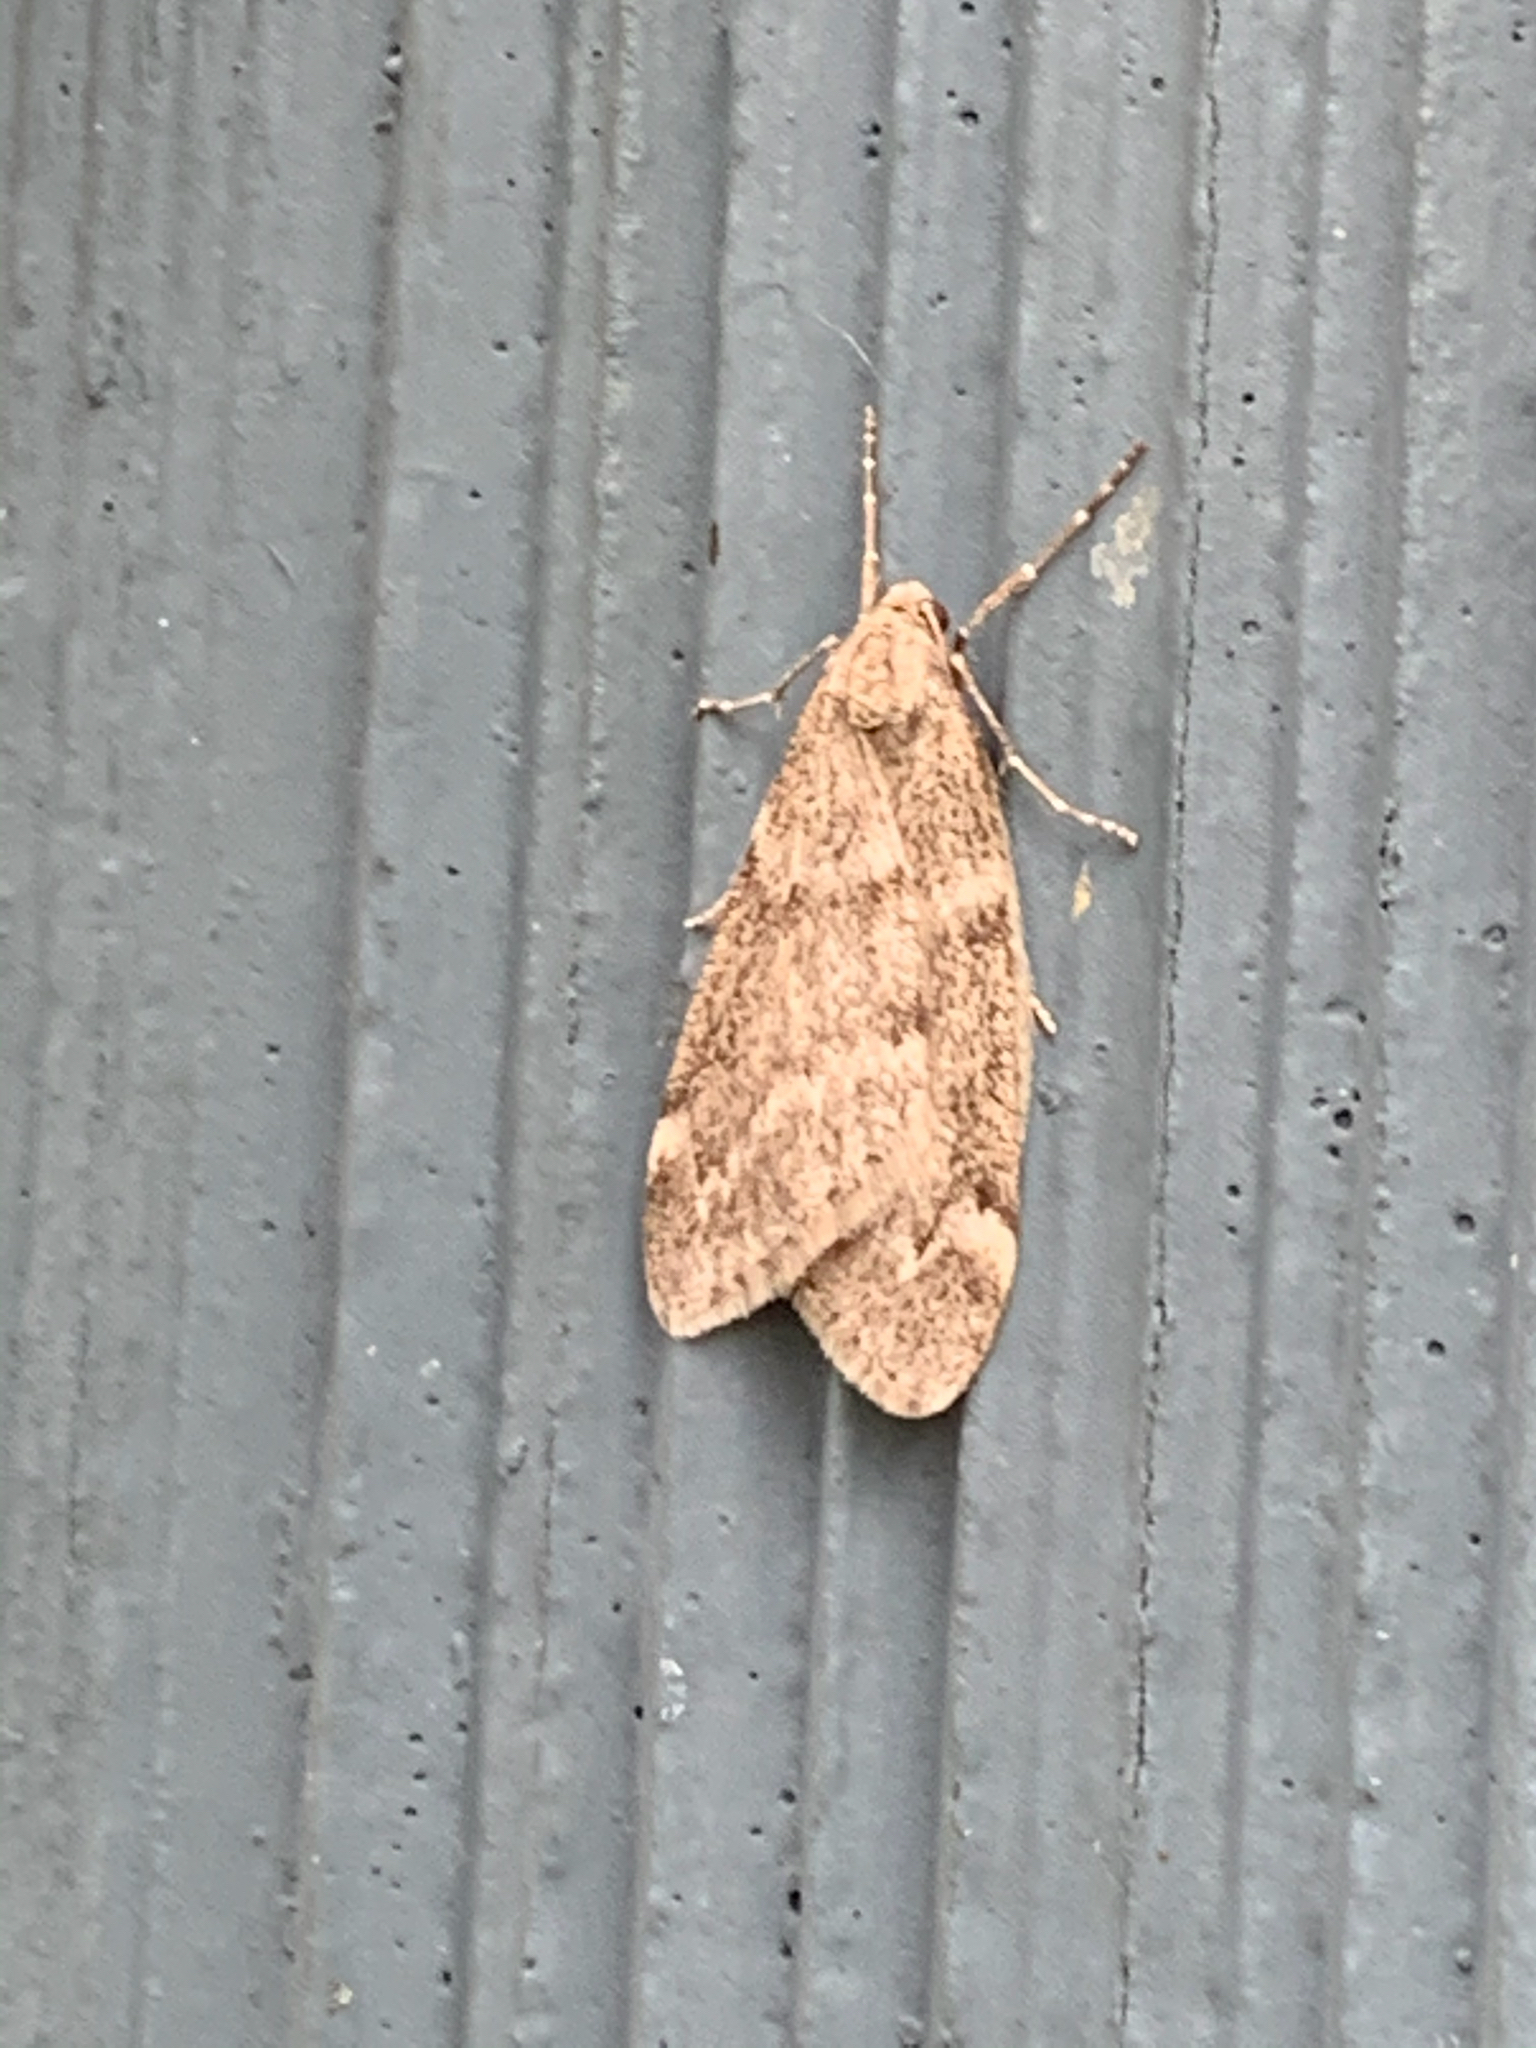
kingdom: Animalia
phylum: Arthropoda
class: Insecta
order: Lepidoptera
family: Geometridae
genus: Alsophila
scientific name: Alsophila pometaria
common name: Fall cankerworm
